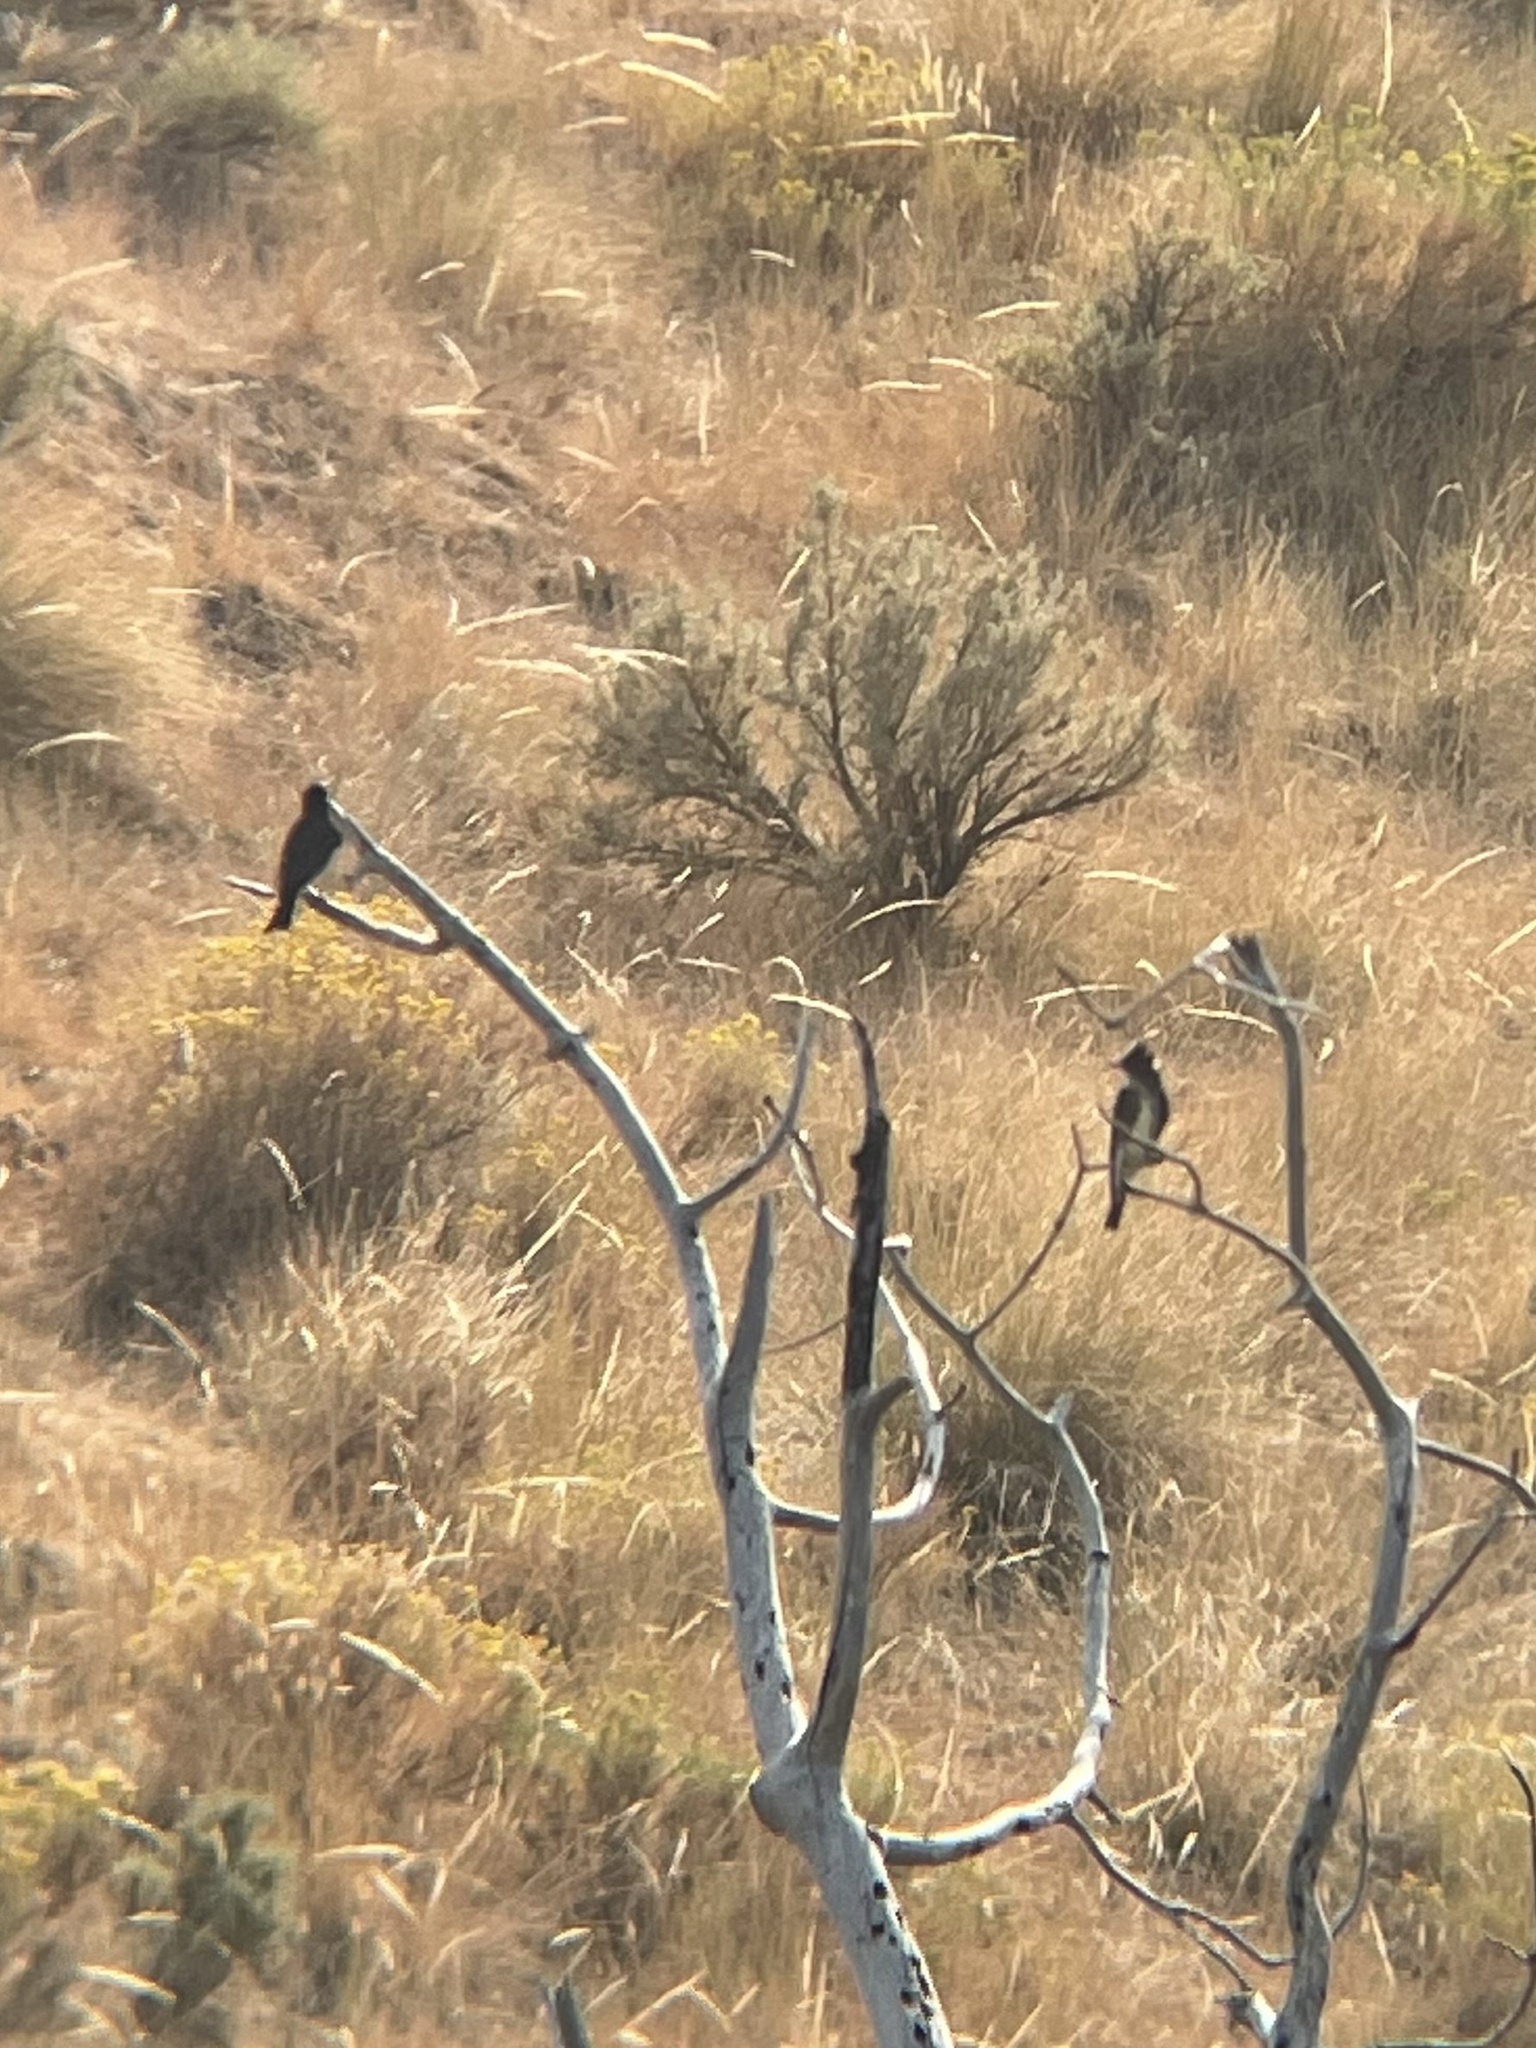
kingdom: Animalia
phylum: Chordata
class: Aves
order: Passeriformes
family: Tyrannidae
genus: Contopus
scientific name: Contopus cooperi
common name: Olive-sided flycatcher
